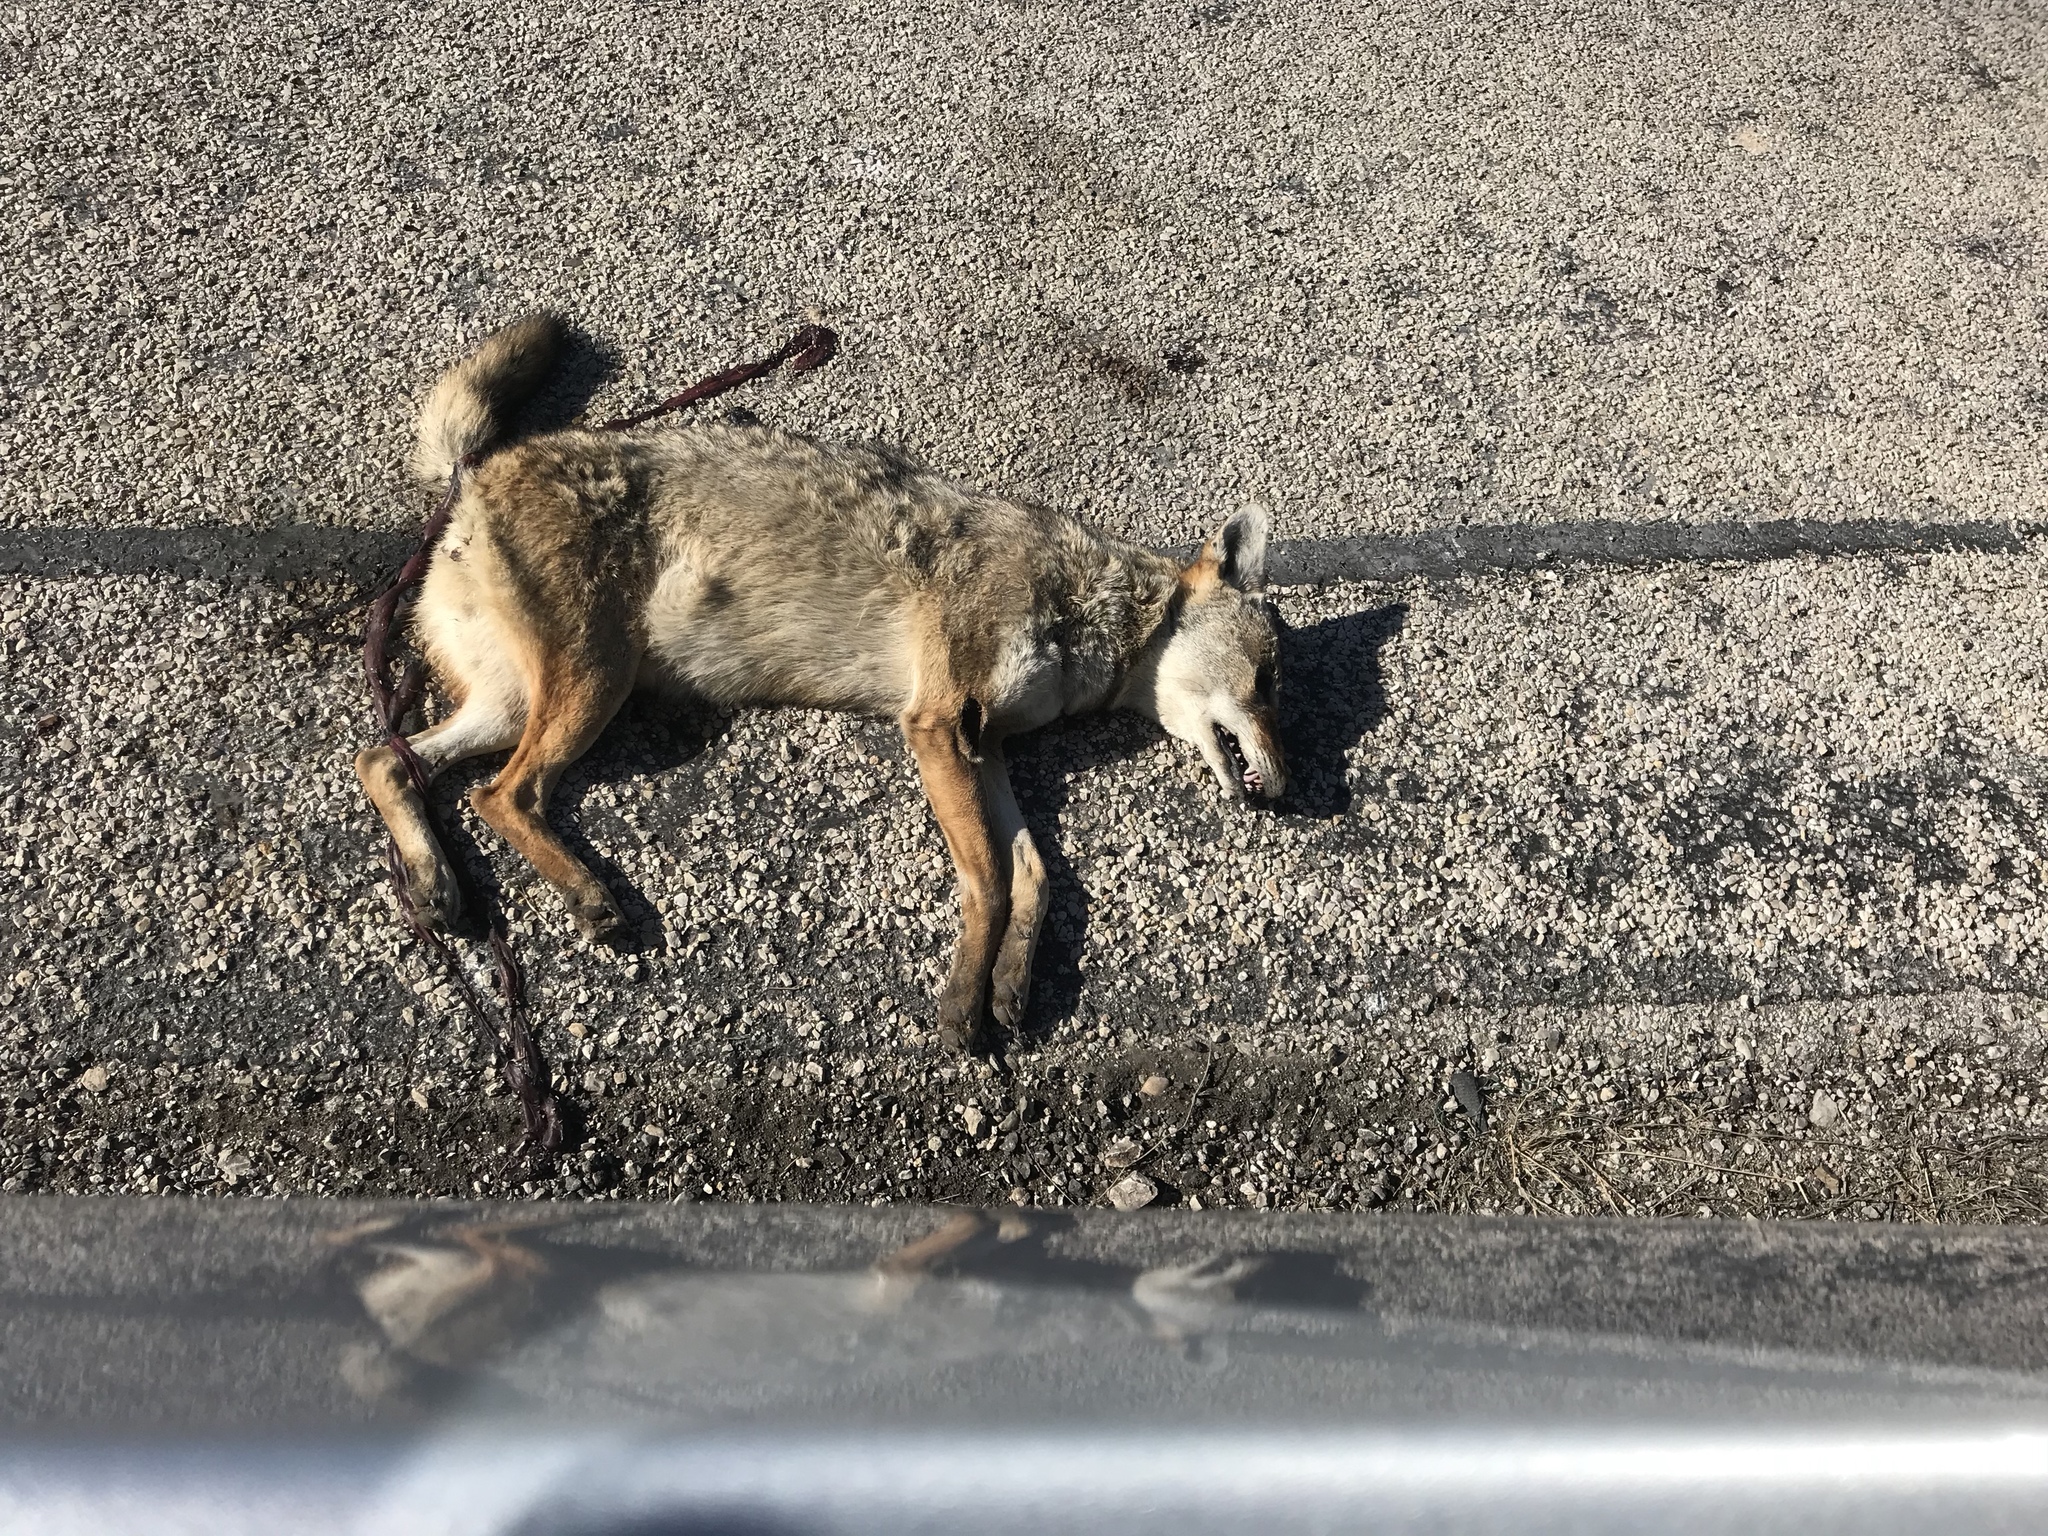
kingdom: Animalia
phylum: Chordata
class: Mammalia
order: Carnivora
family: Canidae
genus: Canis
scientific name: Canis latrans
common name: Coyote
